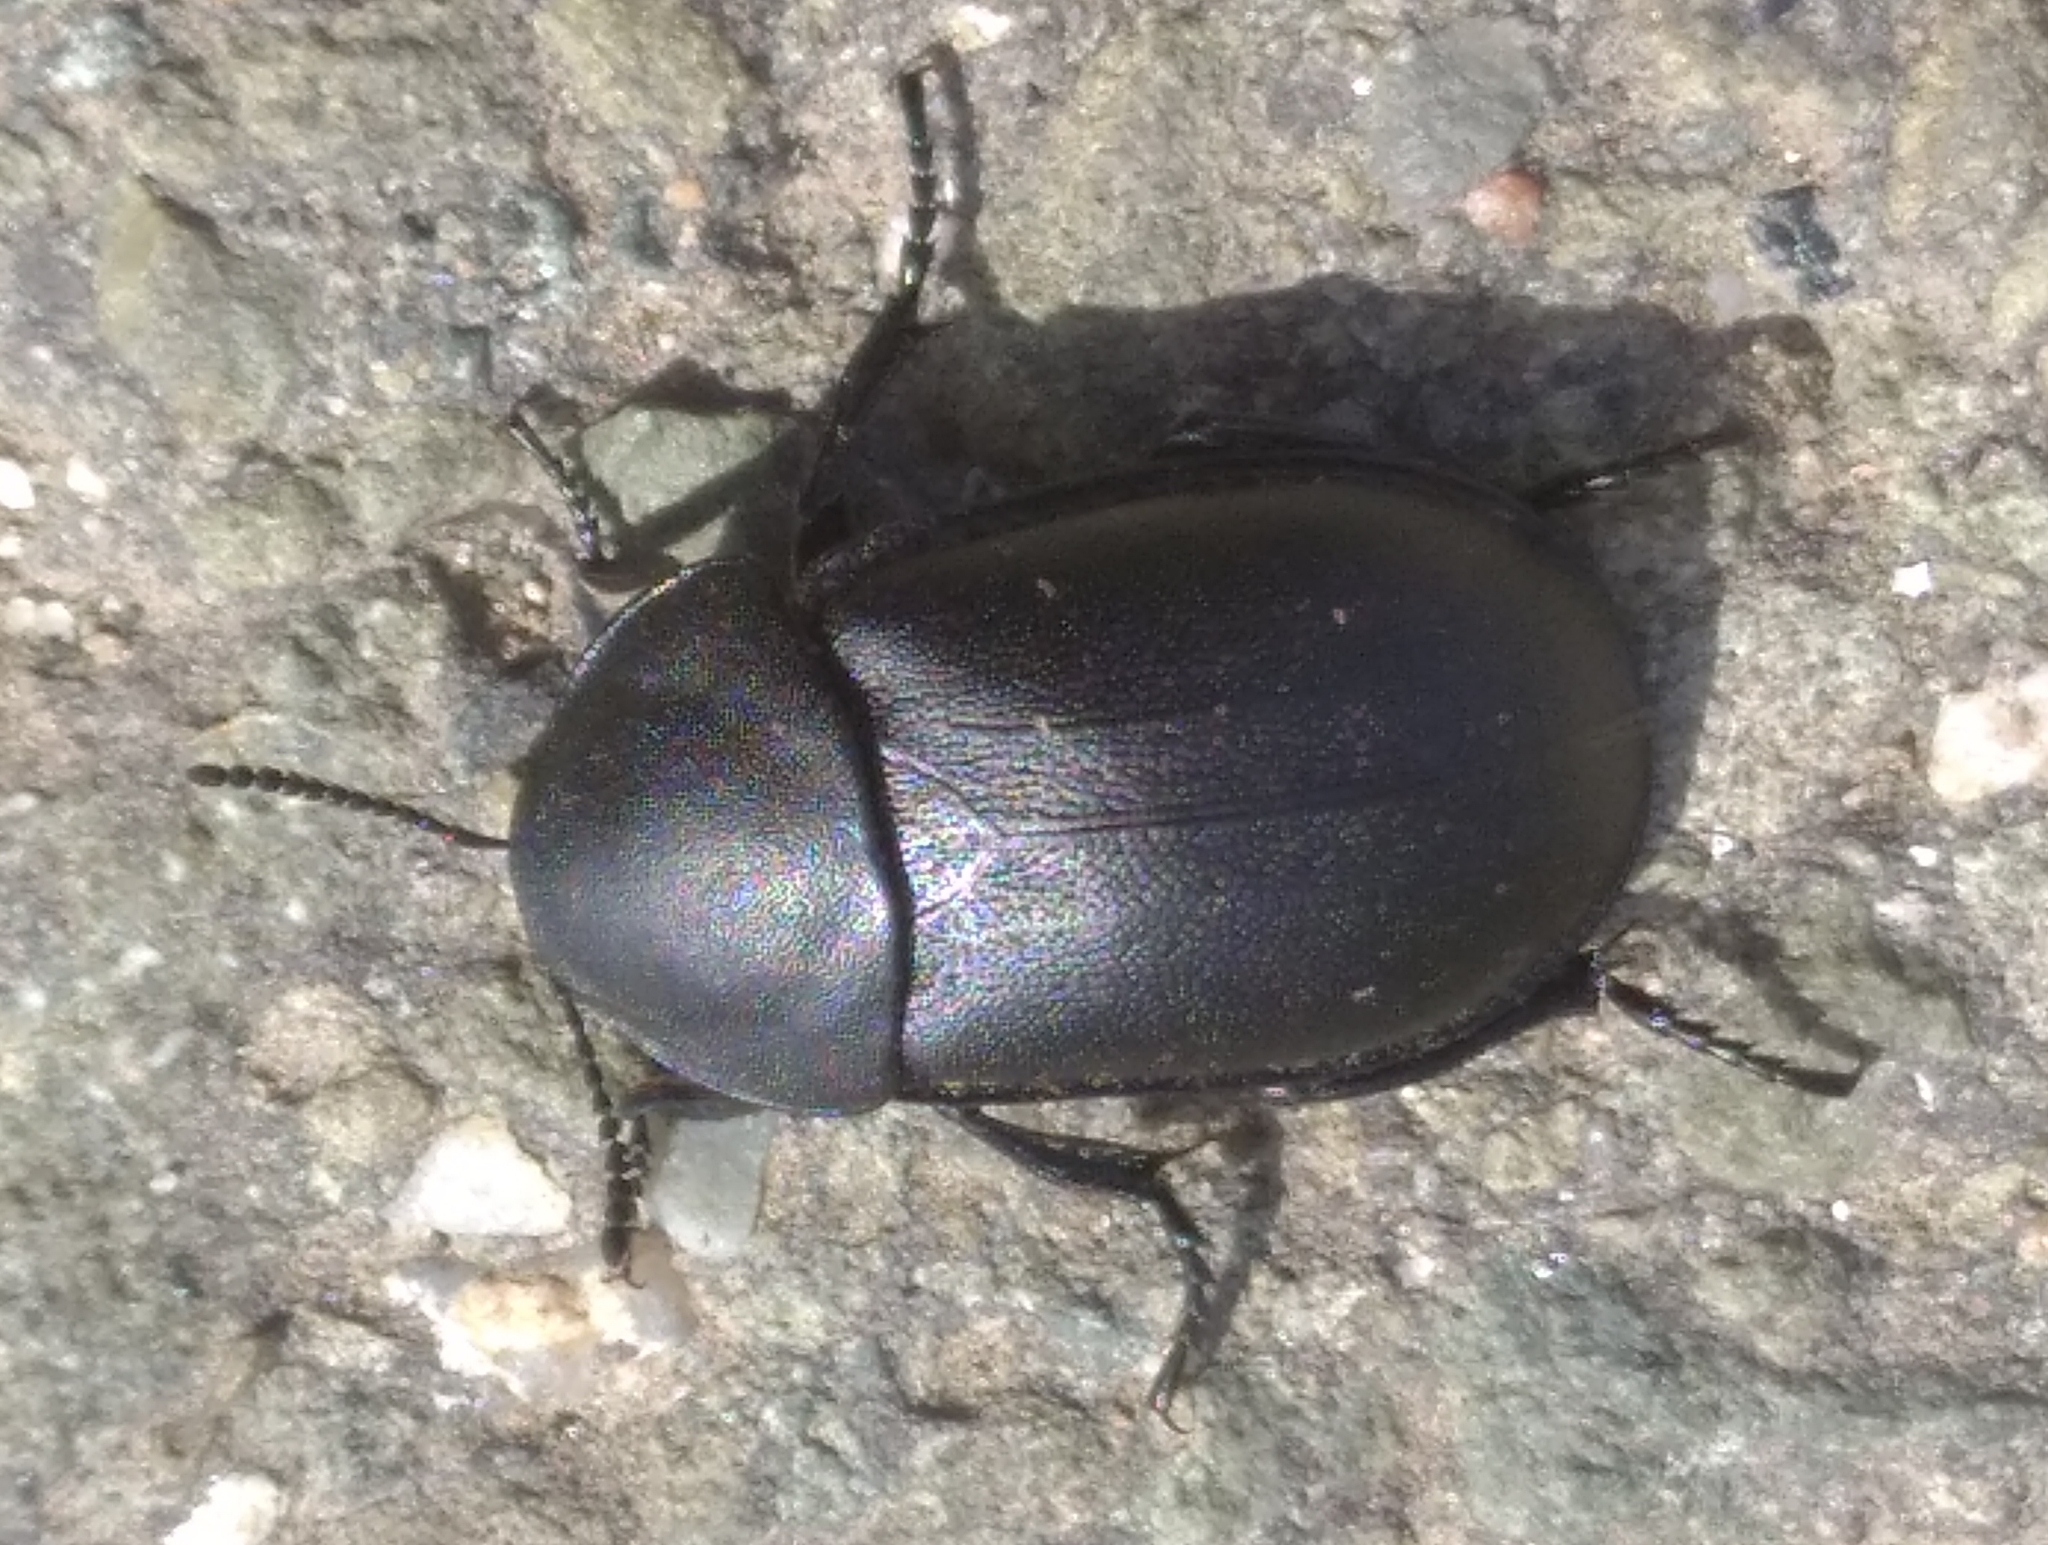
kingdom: Animalia
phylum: Arthropoda
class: Insecta
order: Coleoptera
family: Staphylinidae
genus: Silpha
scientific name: Silpha laevigata
